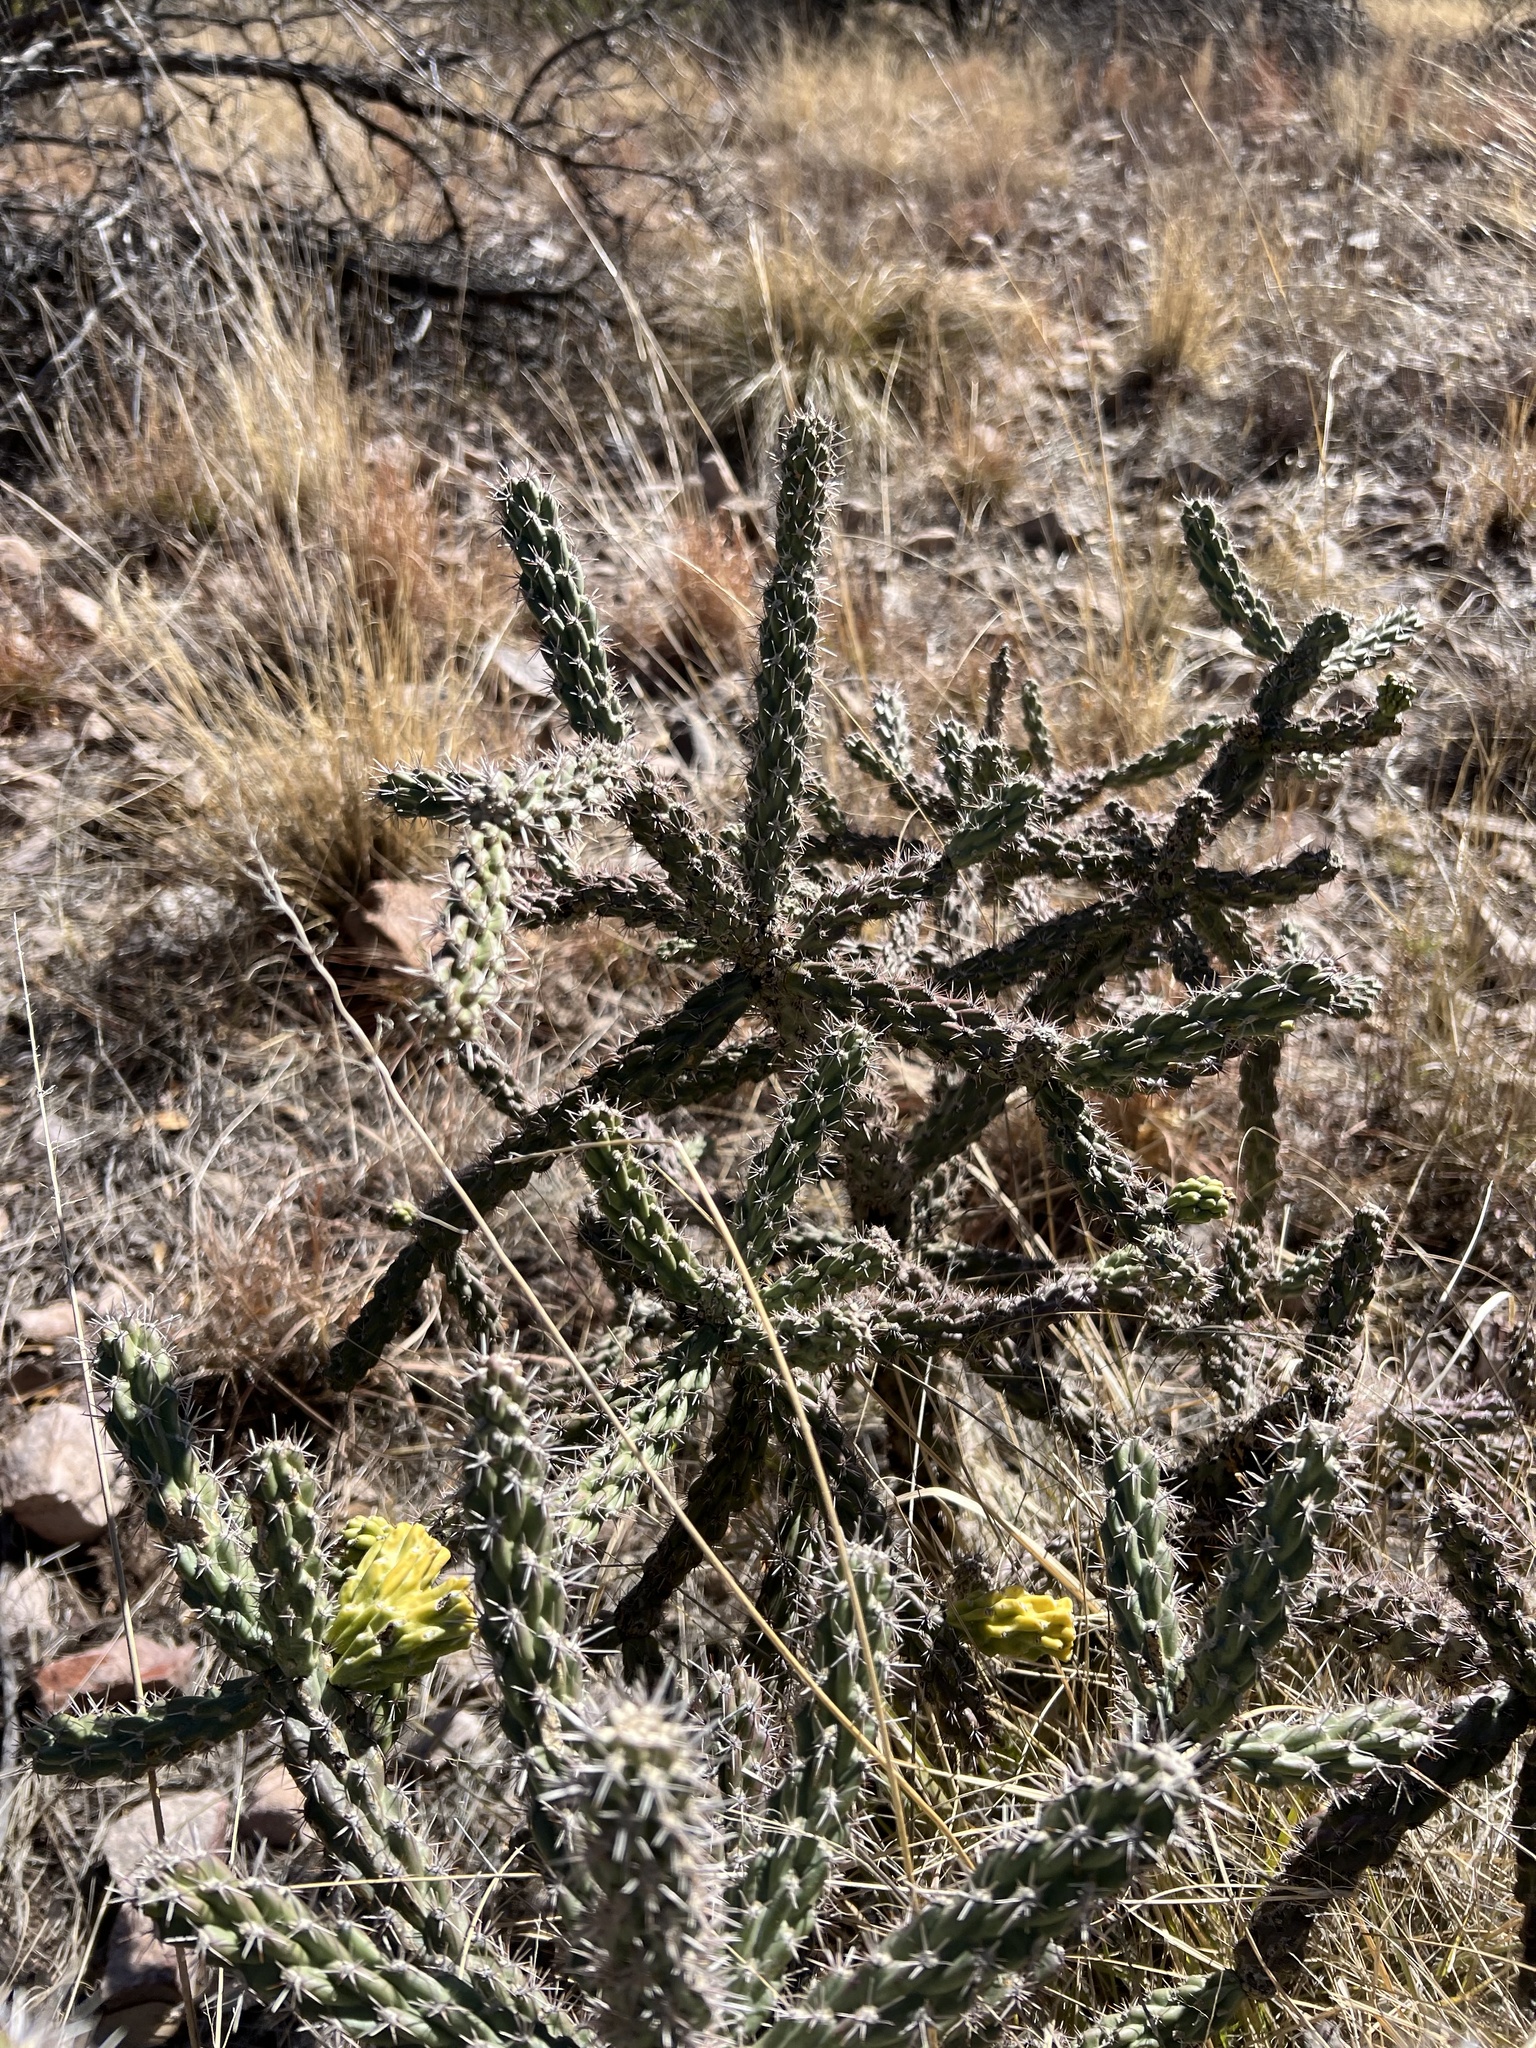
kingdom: Plantae
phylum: Tracheophyta
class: Magnoliopsida
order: Caryophyllales
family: Cactaceae
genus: Cylindropuntia
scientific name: Cylindropuntia imbricata
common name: Candelabrum cactus
